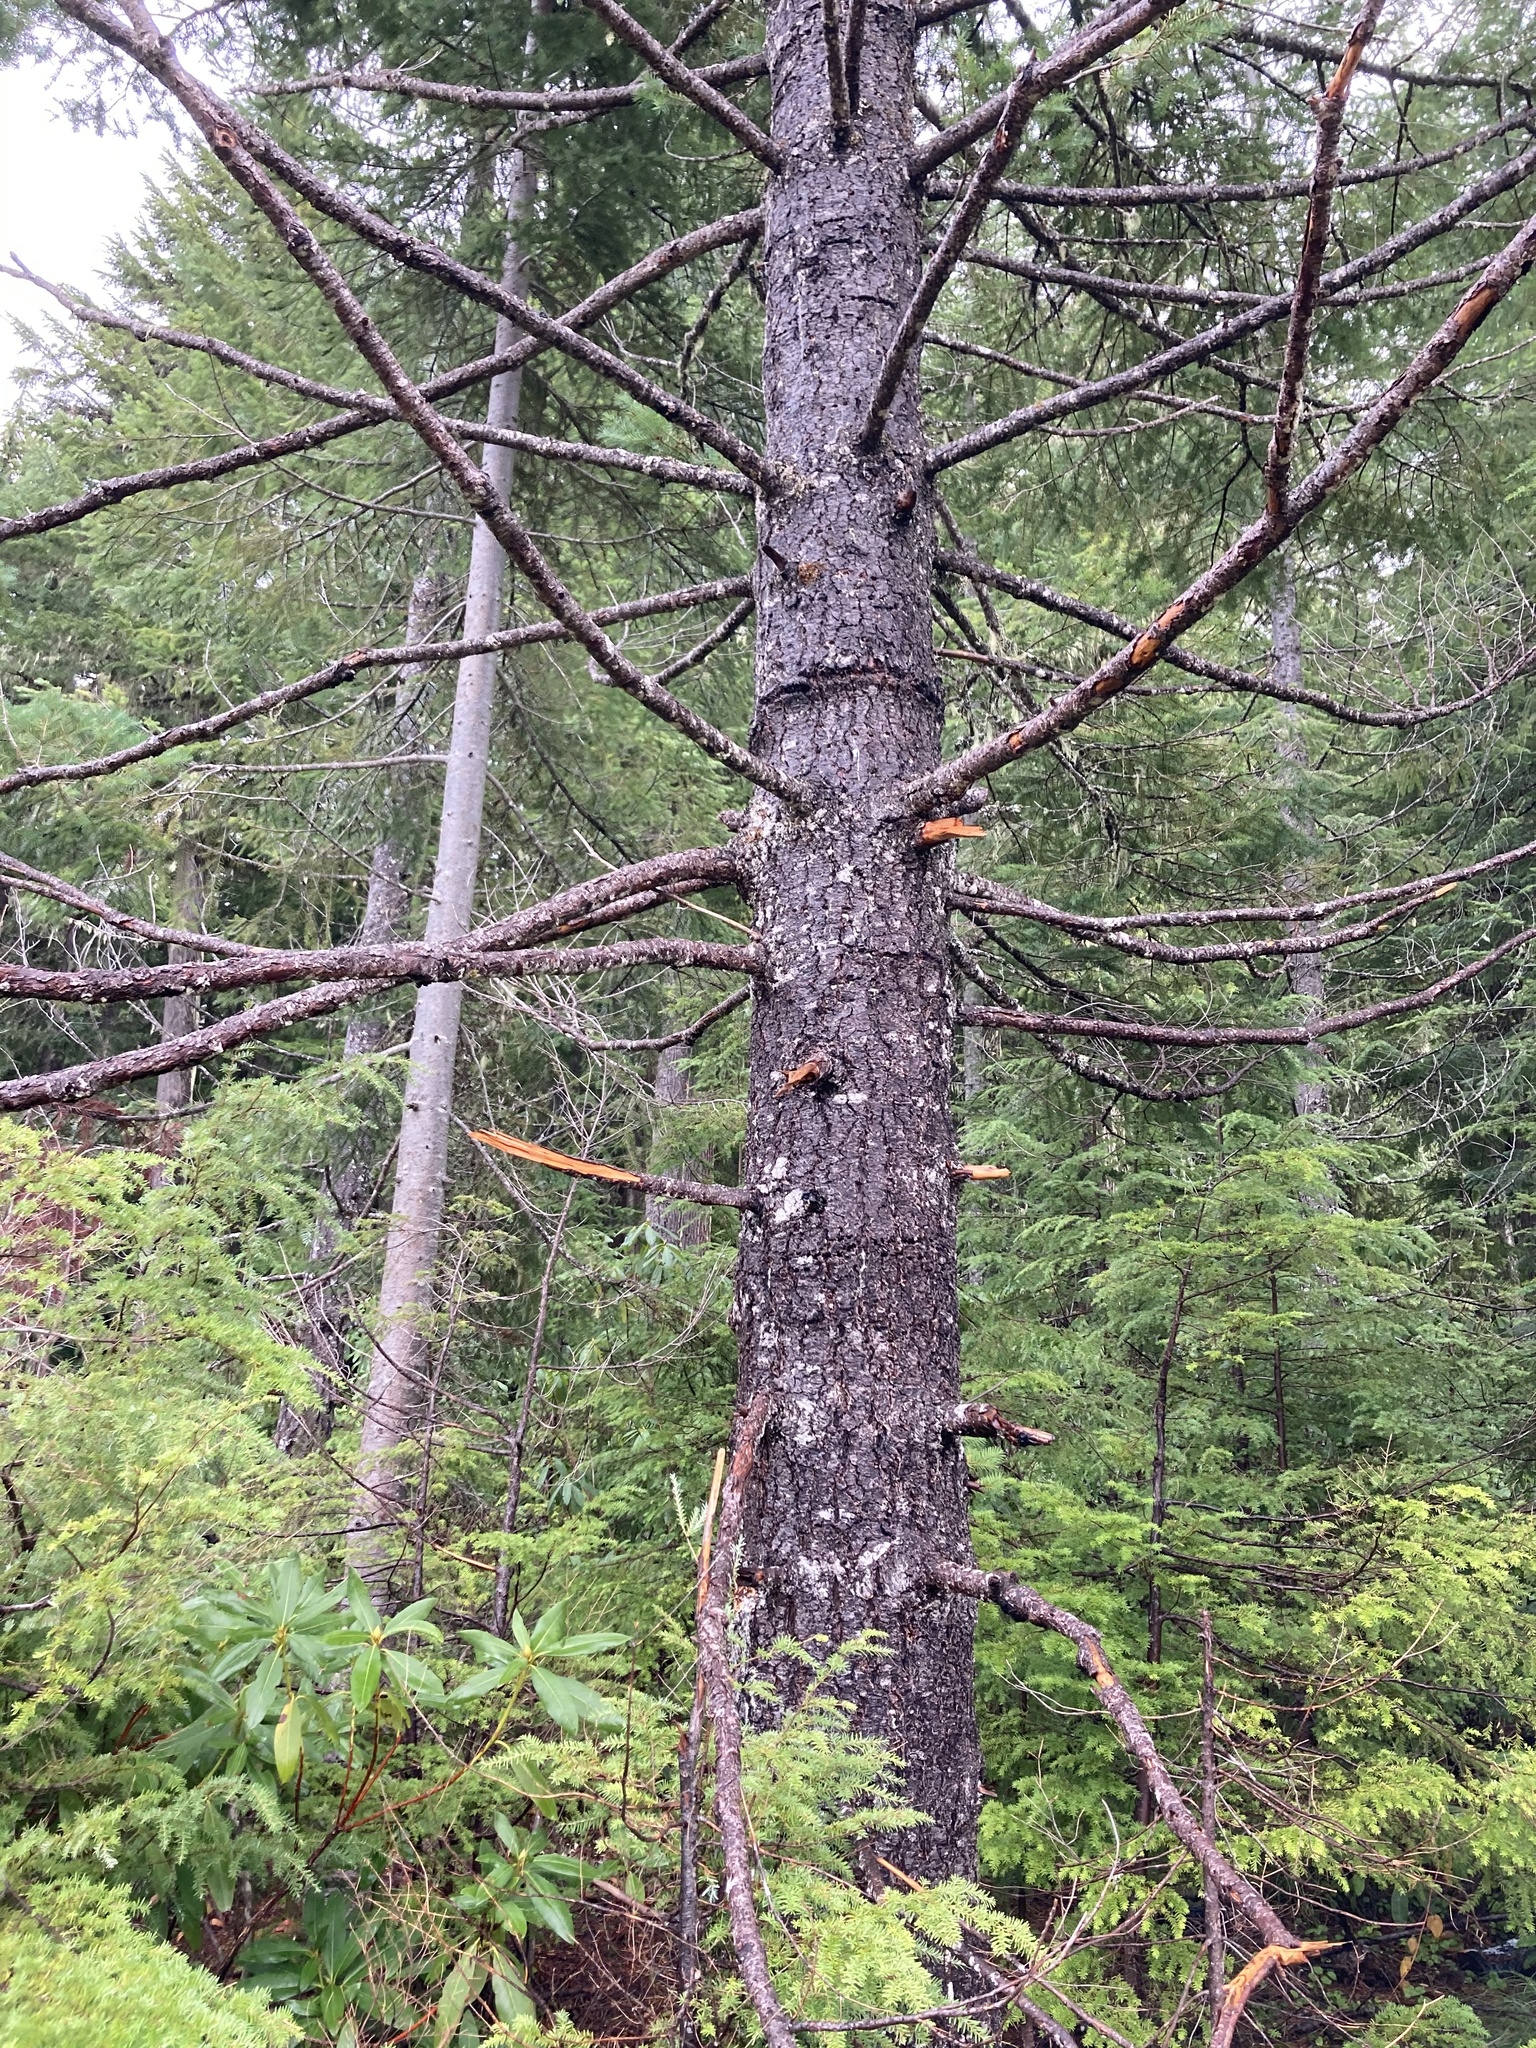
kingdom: Plantae
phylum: Tracheophyta
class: Pinopsida
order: Pinales
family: Pinaceae
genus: Pseudotsuga
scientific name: Pseudotsuga menziesii
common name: Douglas fir
